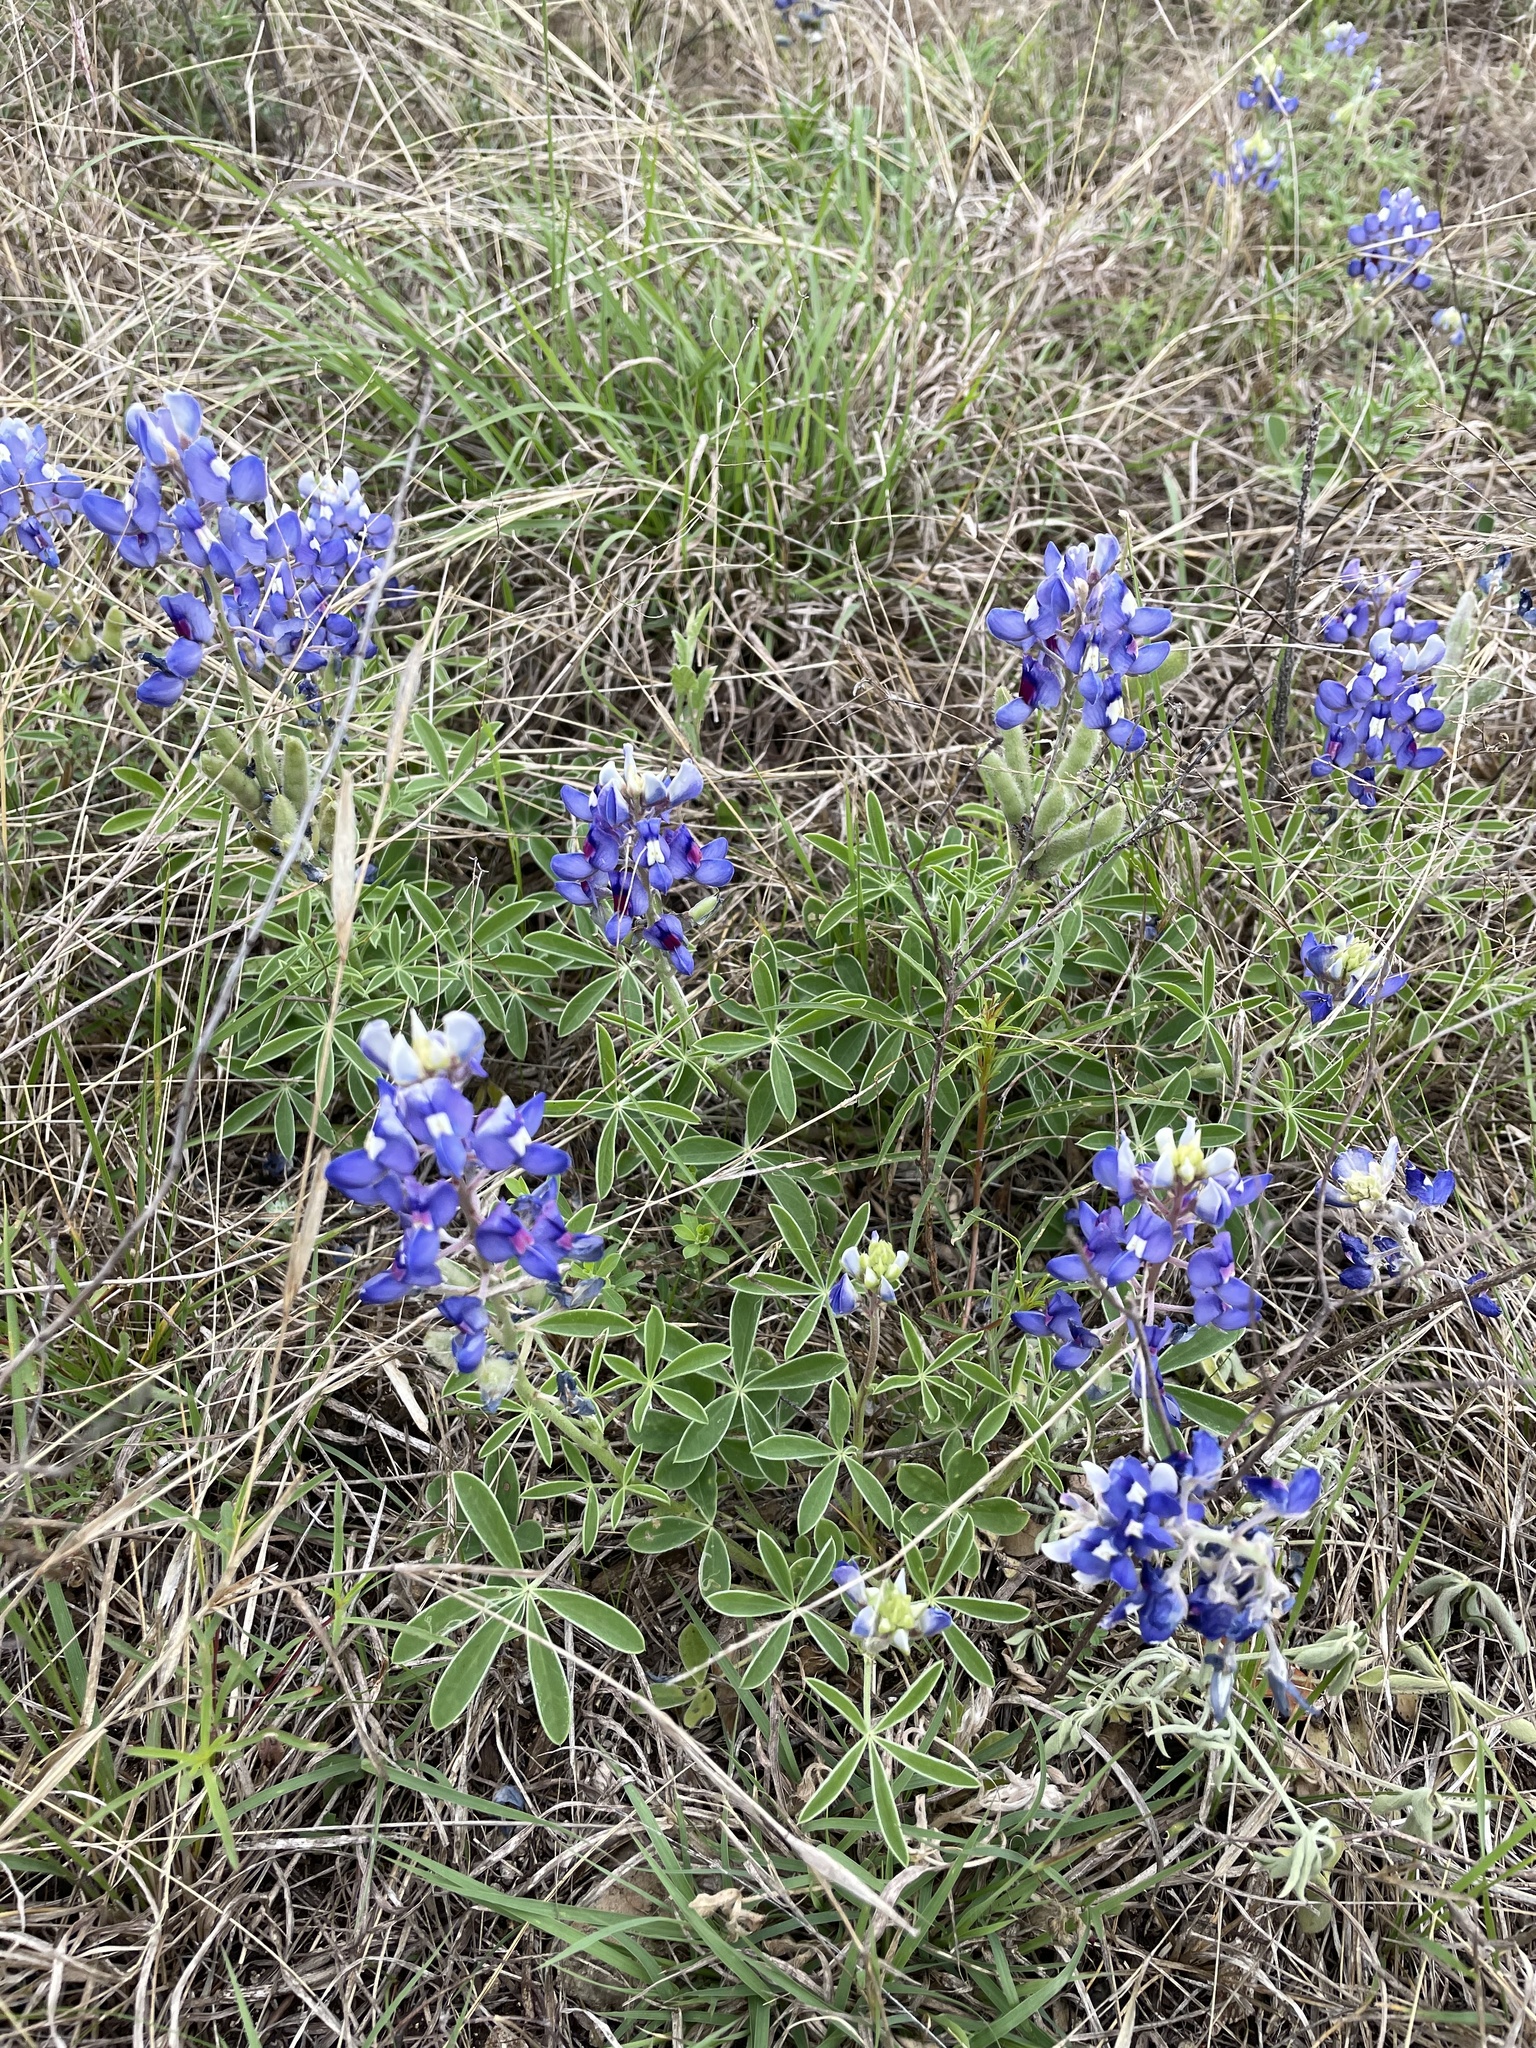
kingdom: Plantae
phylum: Tracheophyta
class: Magnoliopsida
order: Fabales
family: Fabaceae
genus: Lupinus
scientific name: Lupinus texensis
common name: Texas bluebonnet
